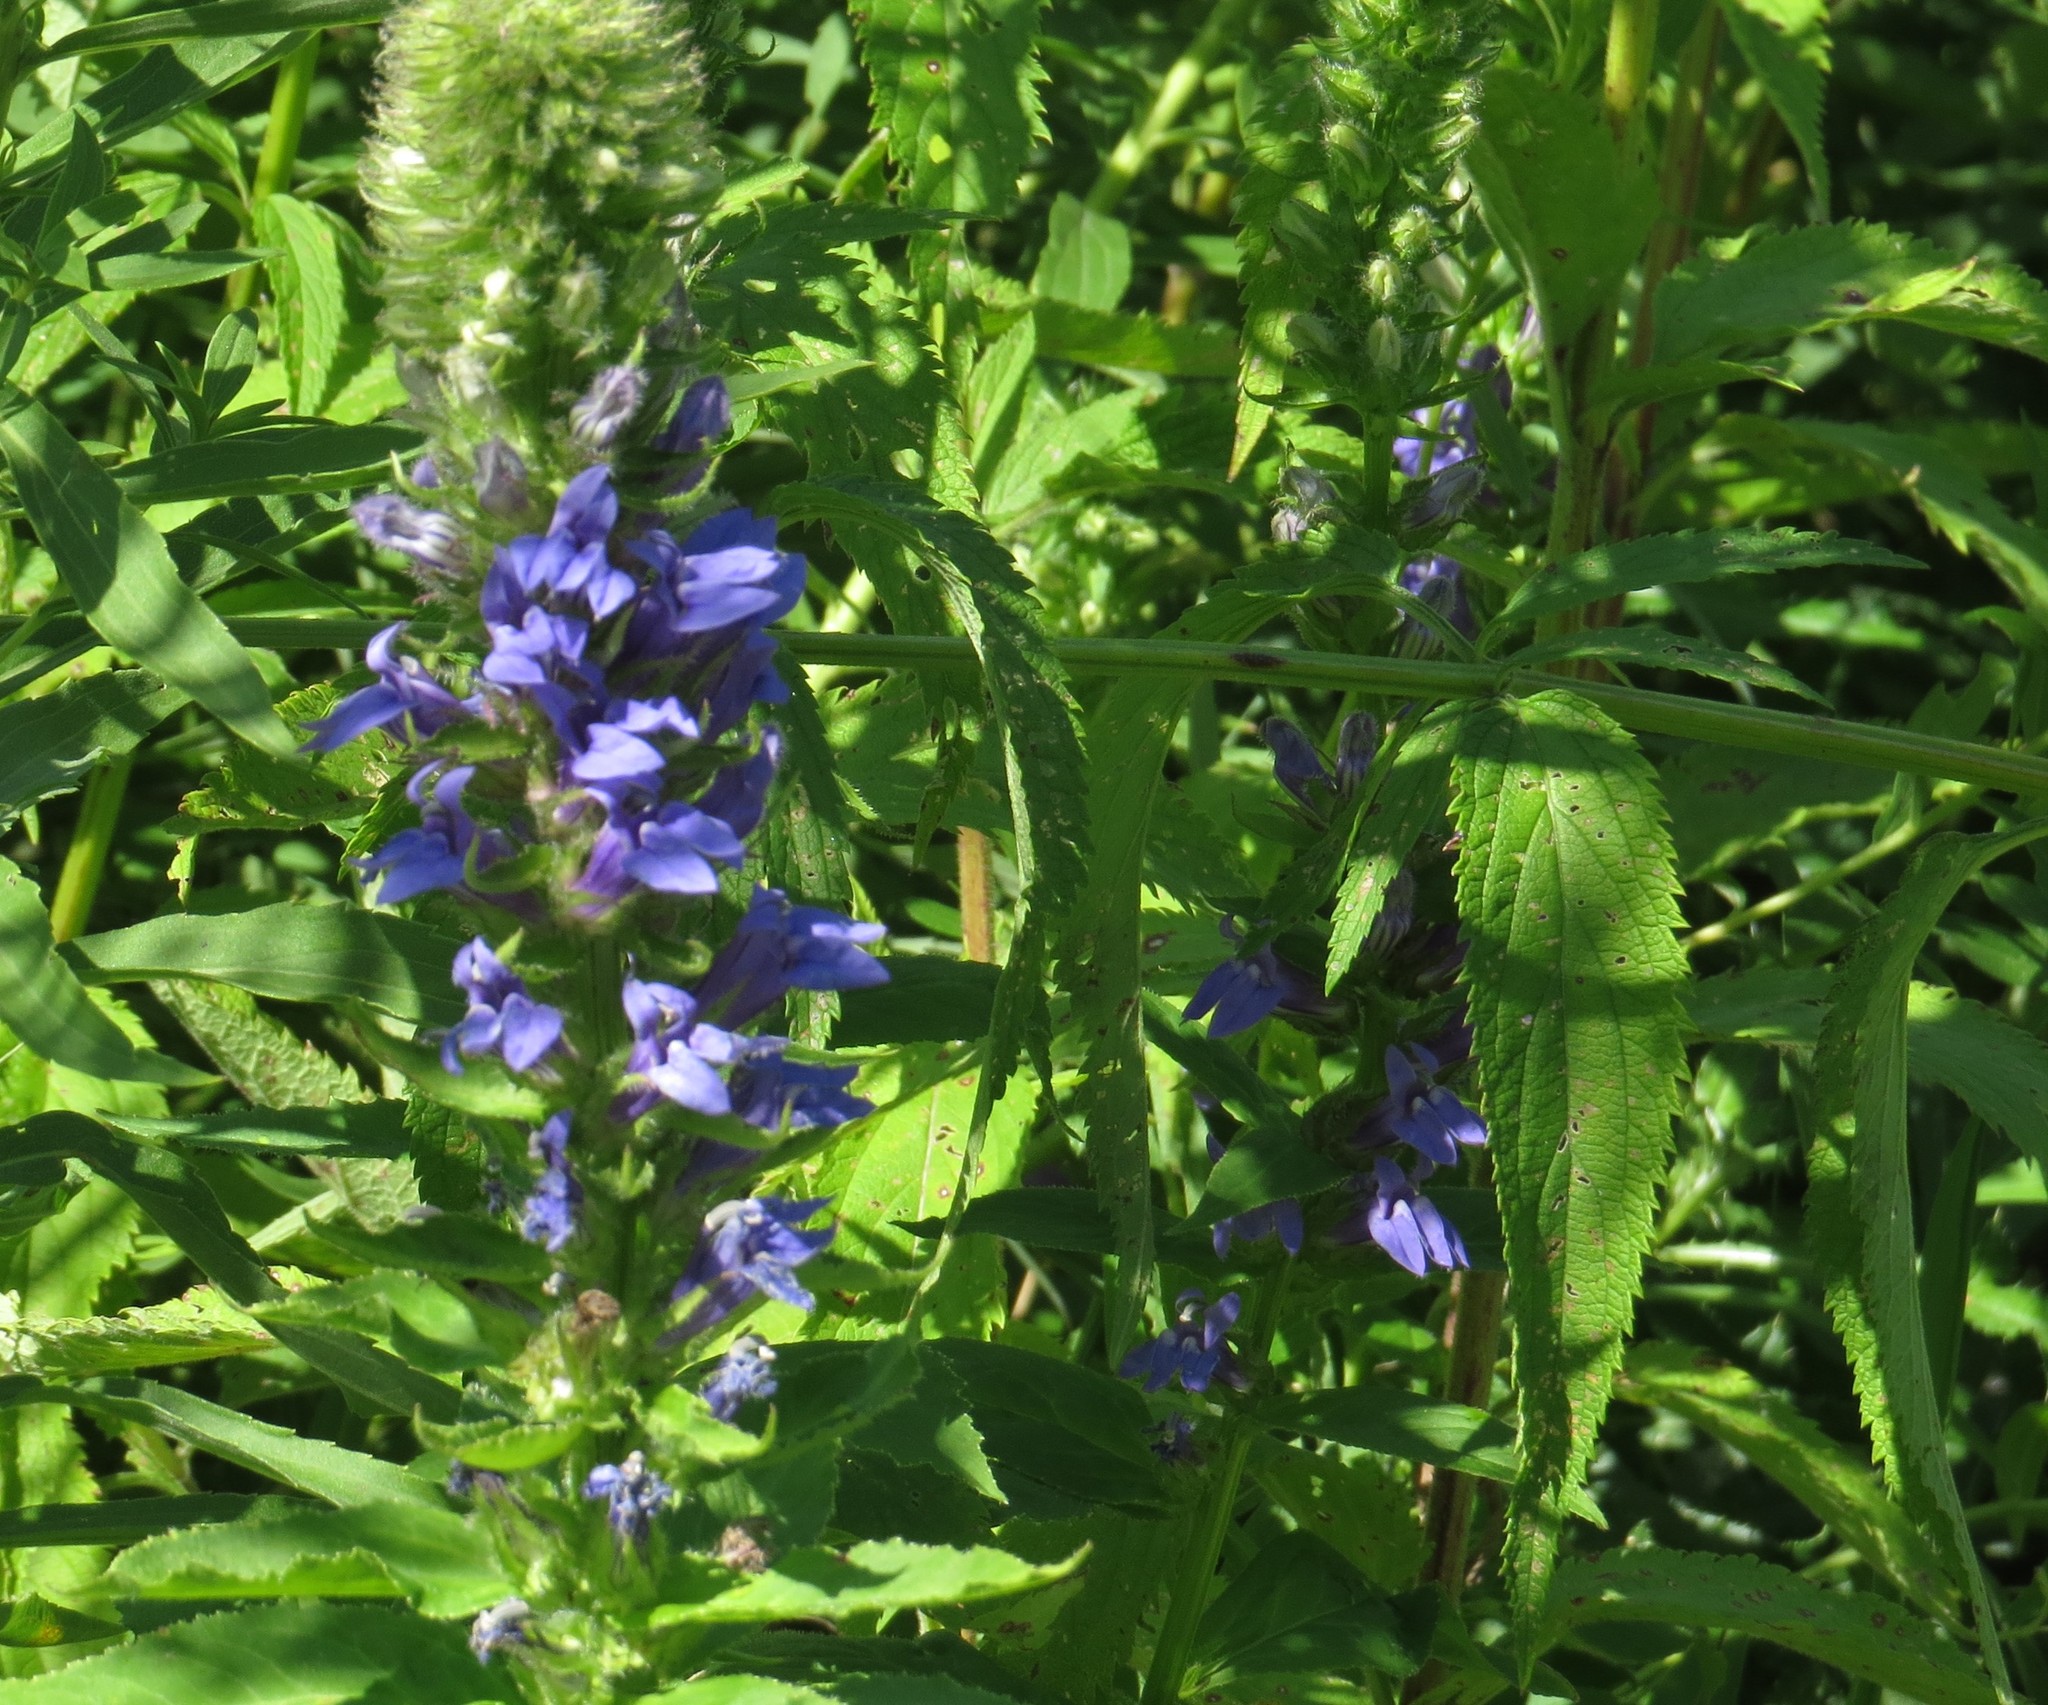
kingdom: Plantae
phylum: Tracheophyta
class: Magnoliopsida
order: Asterales
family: Campanulaceae
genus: Lobelia
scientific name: Lobelia siphilitica
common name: Great lobelia
